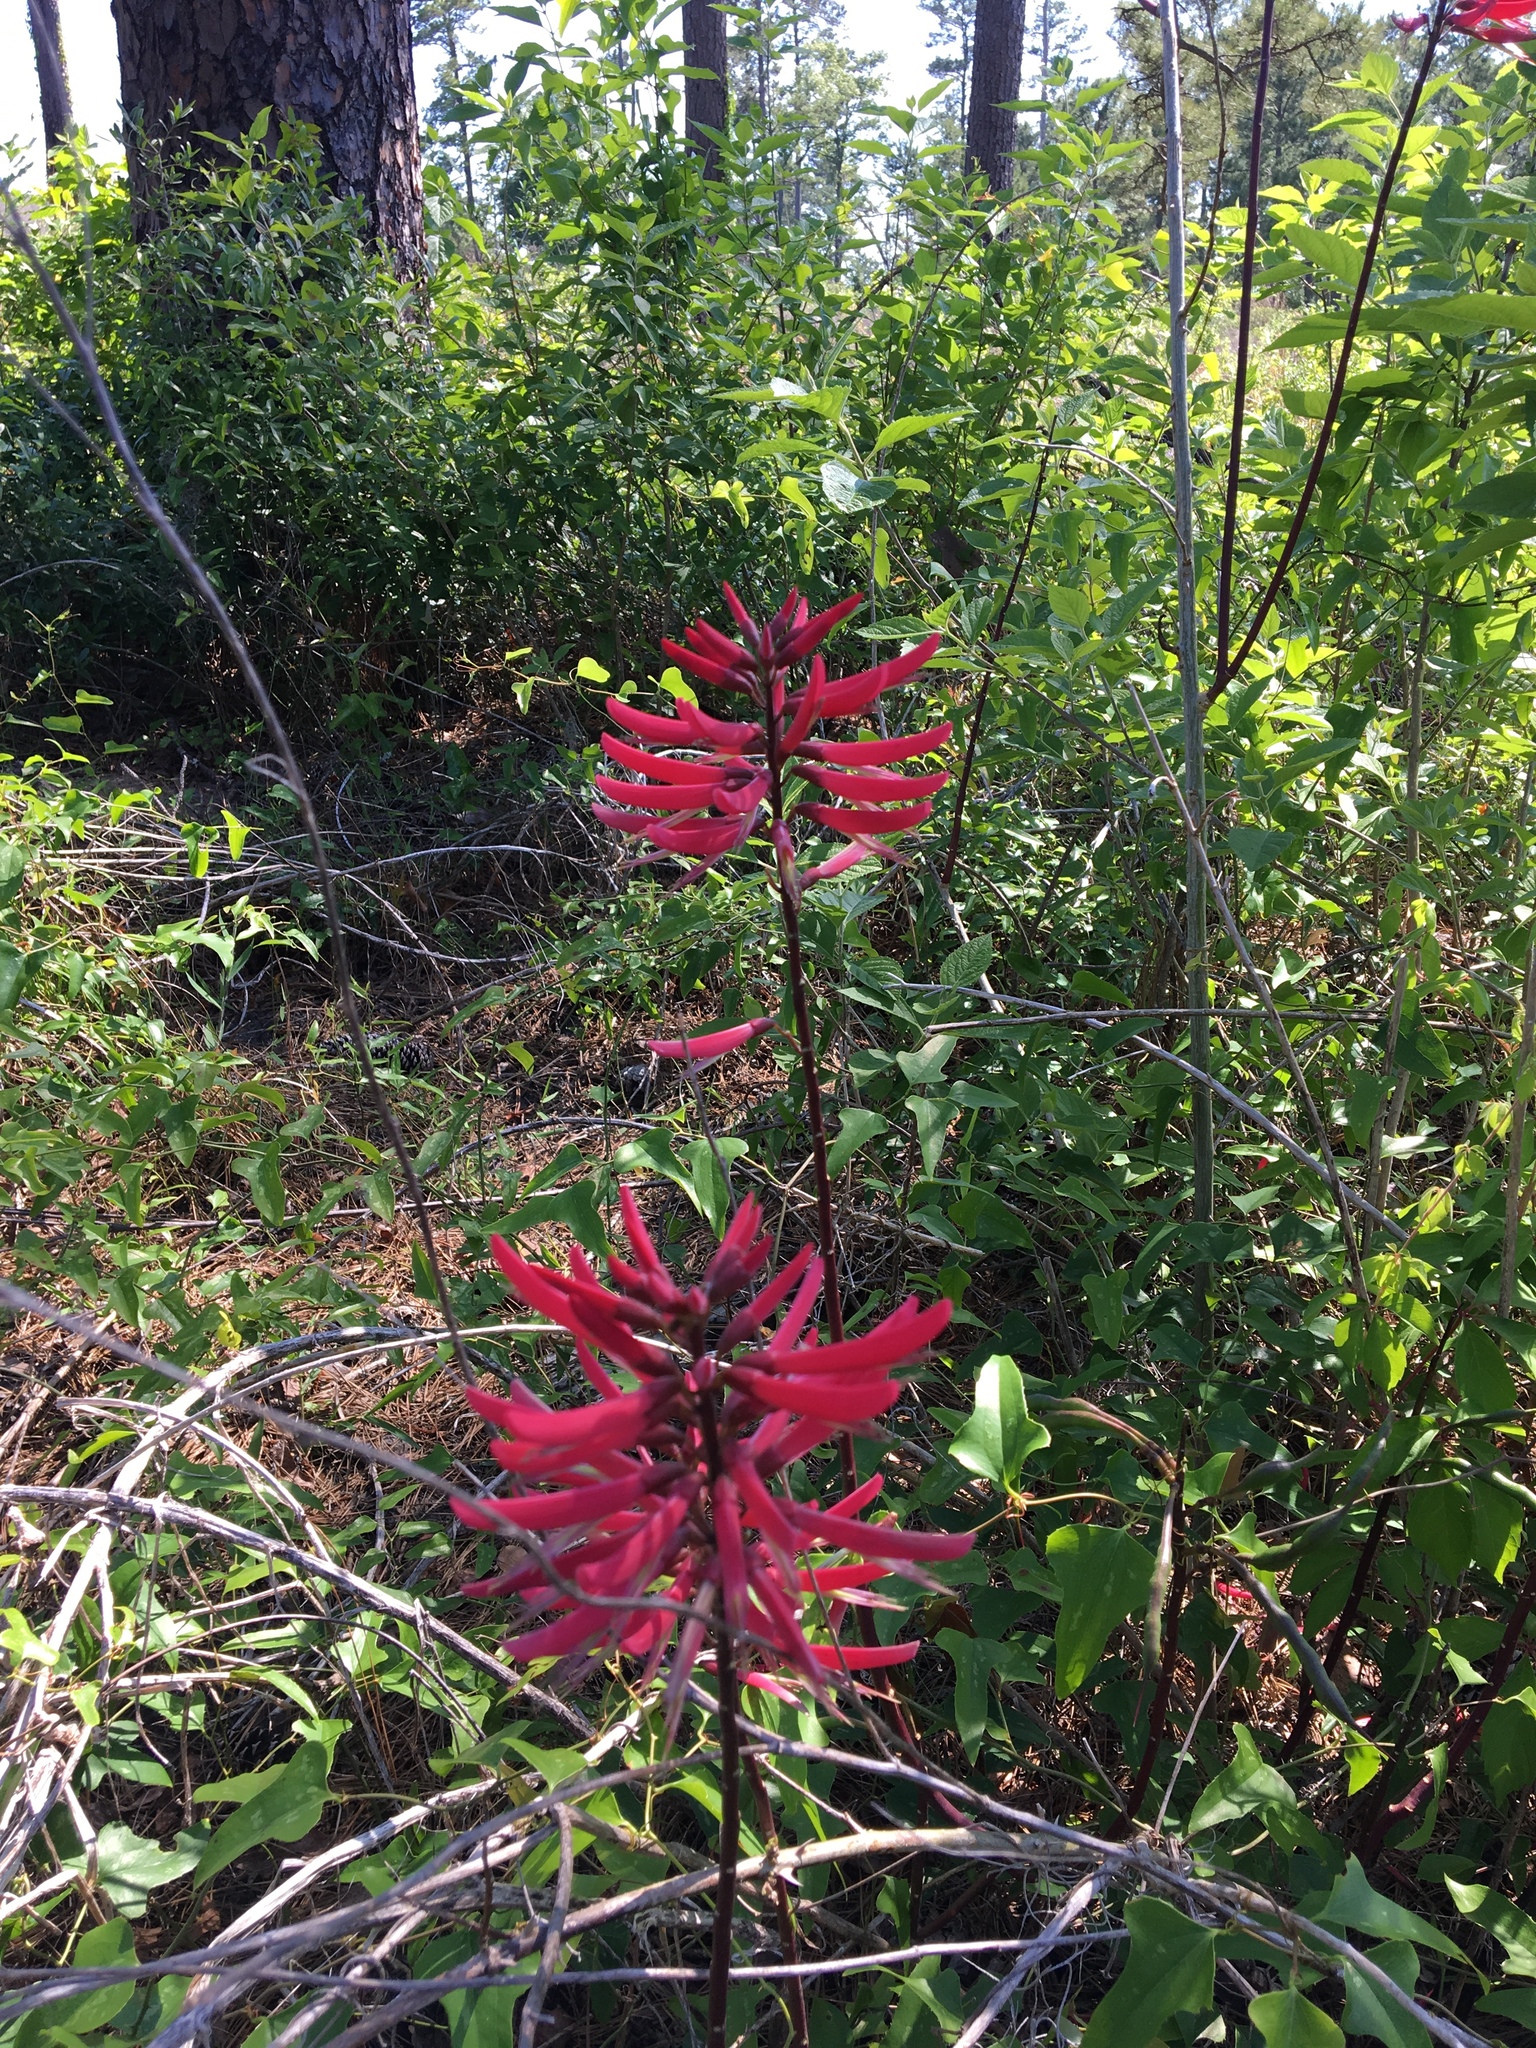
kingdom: Plantae
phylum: Tracheophyta
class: Magnoliopsida
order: Fabales
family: Fabaceae
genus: Erythrina
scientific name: Erythrina herbacea
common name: Coral-bean
